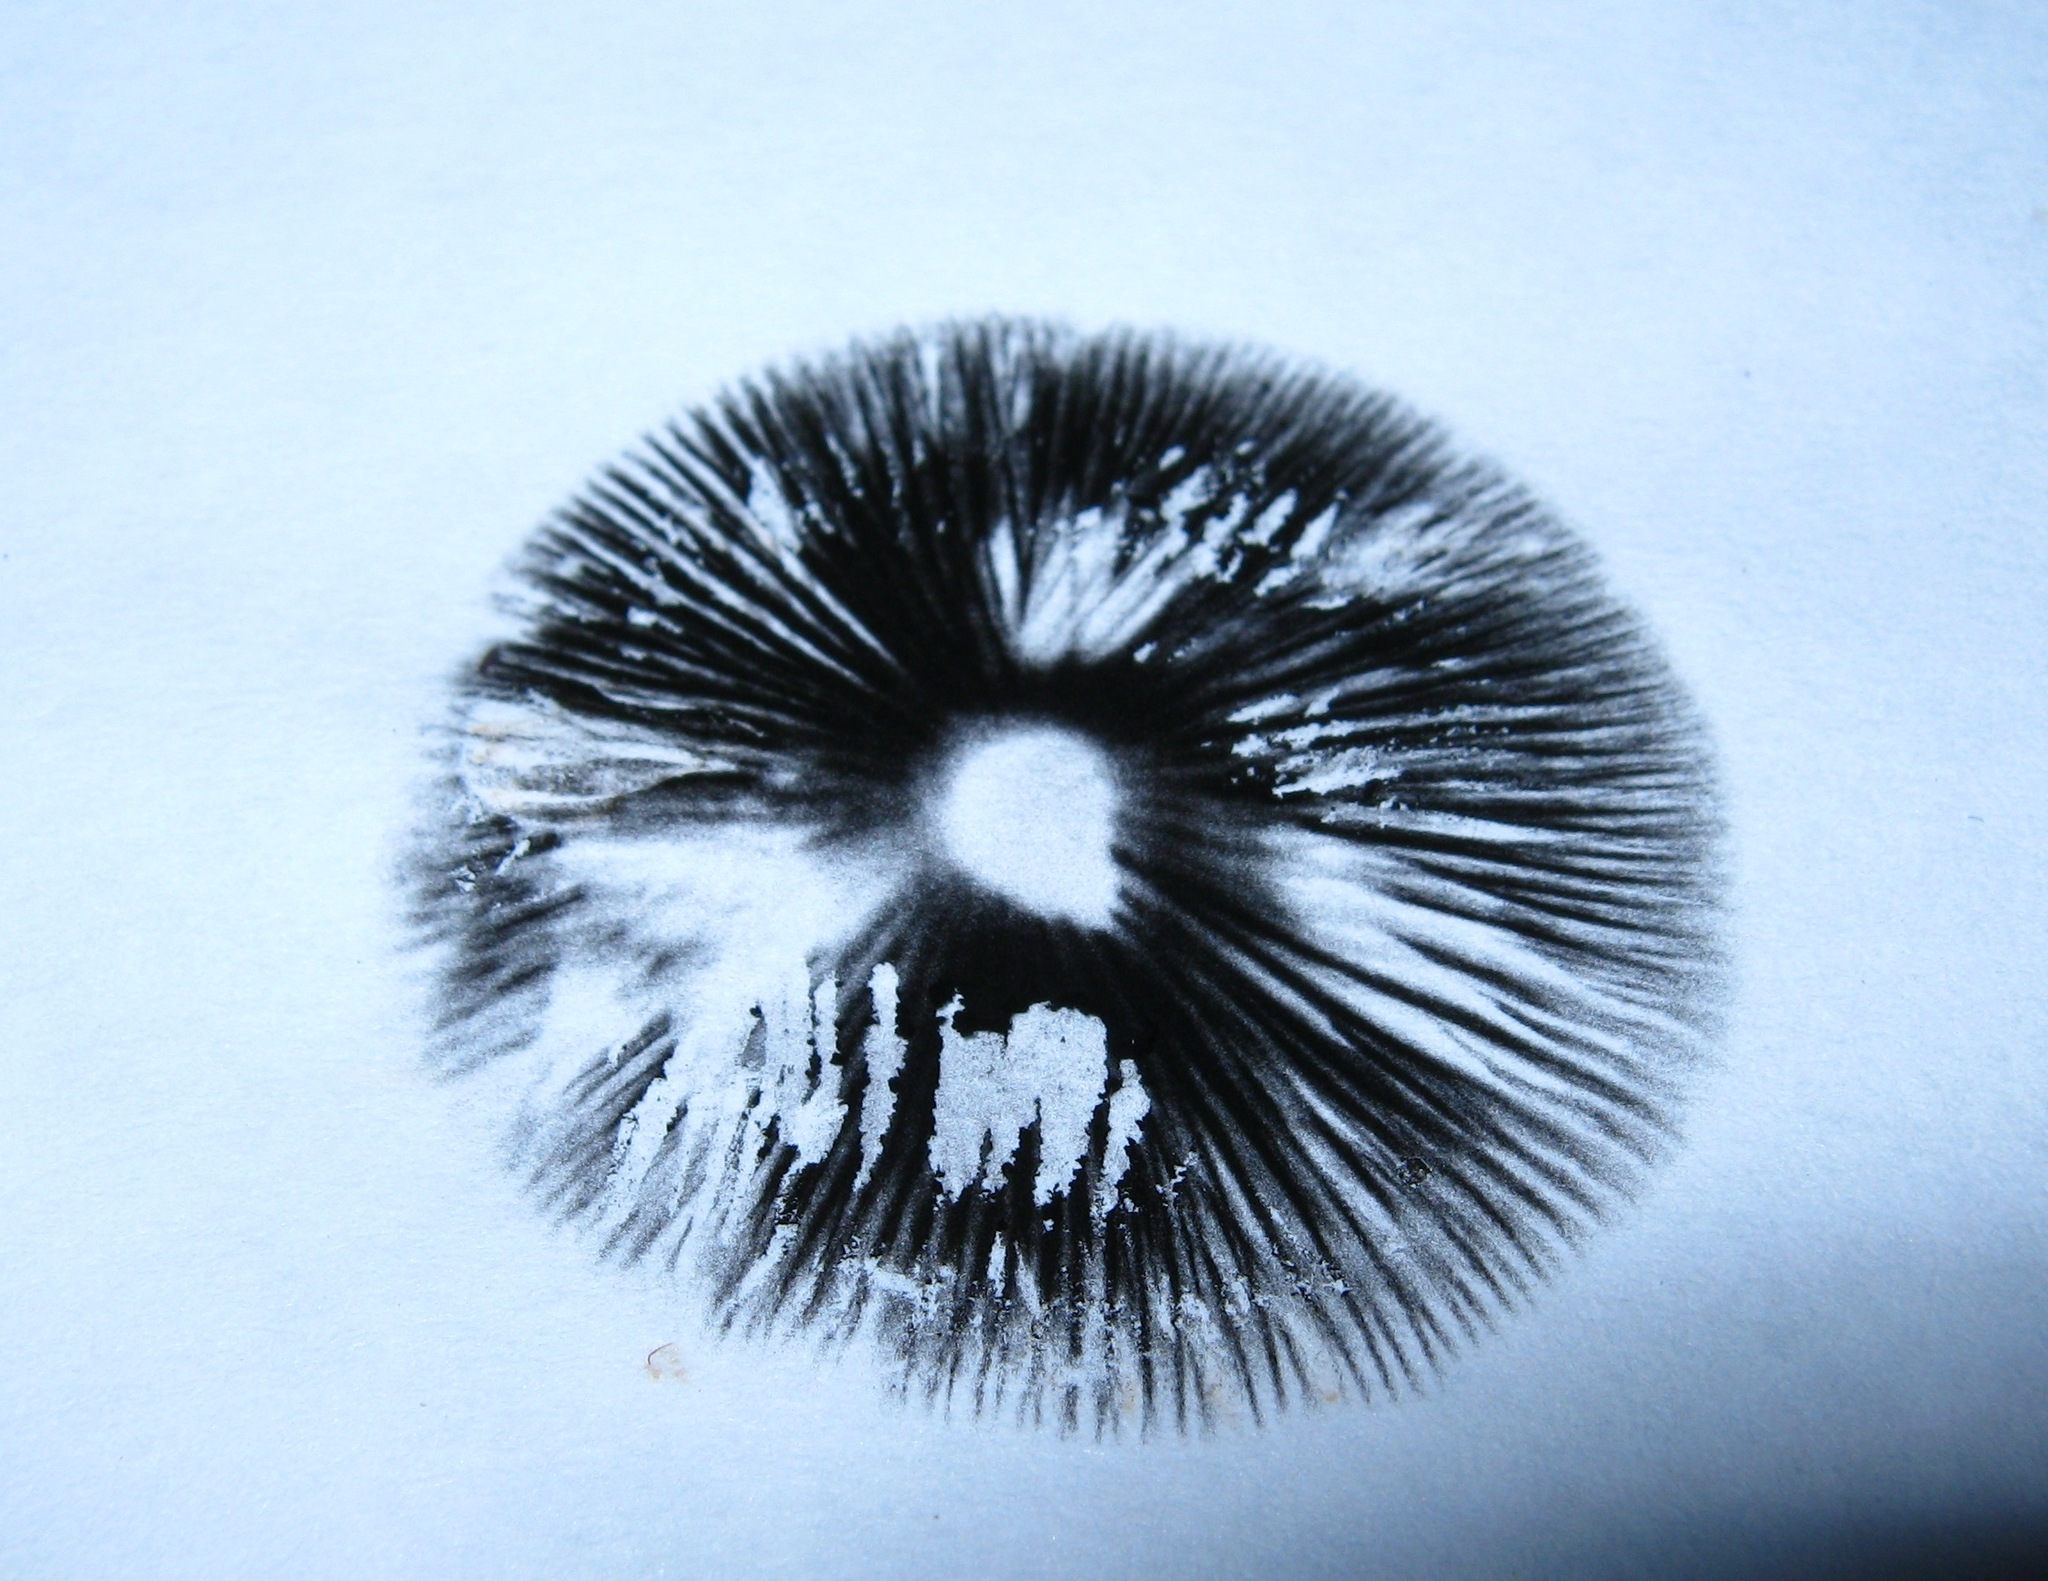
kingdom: Fungi
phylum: Basidiomycota
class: Agaricomycetes
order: Agaricales
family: Bolbitiaceae
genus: Panaeolus
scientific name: Panaeolus subbalteatus
